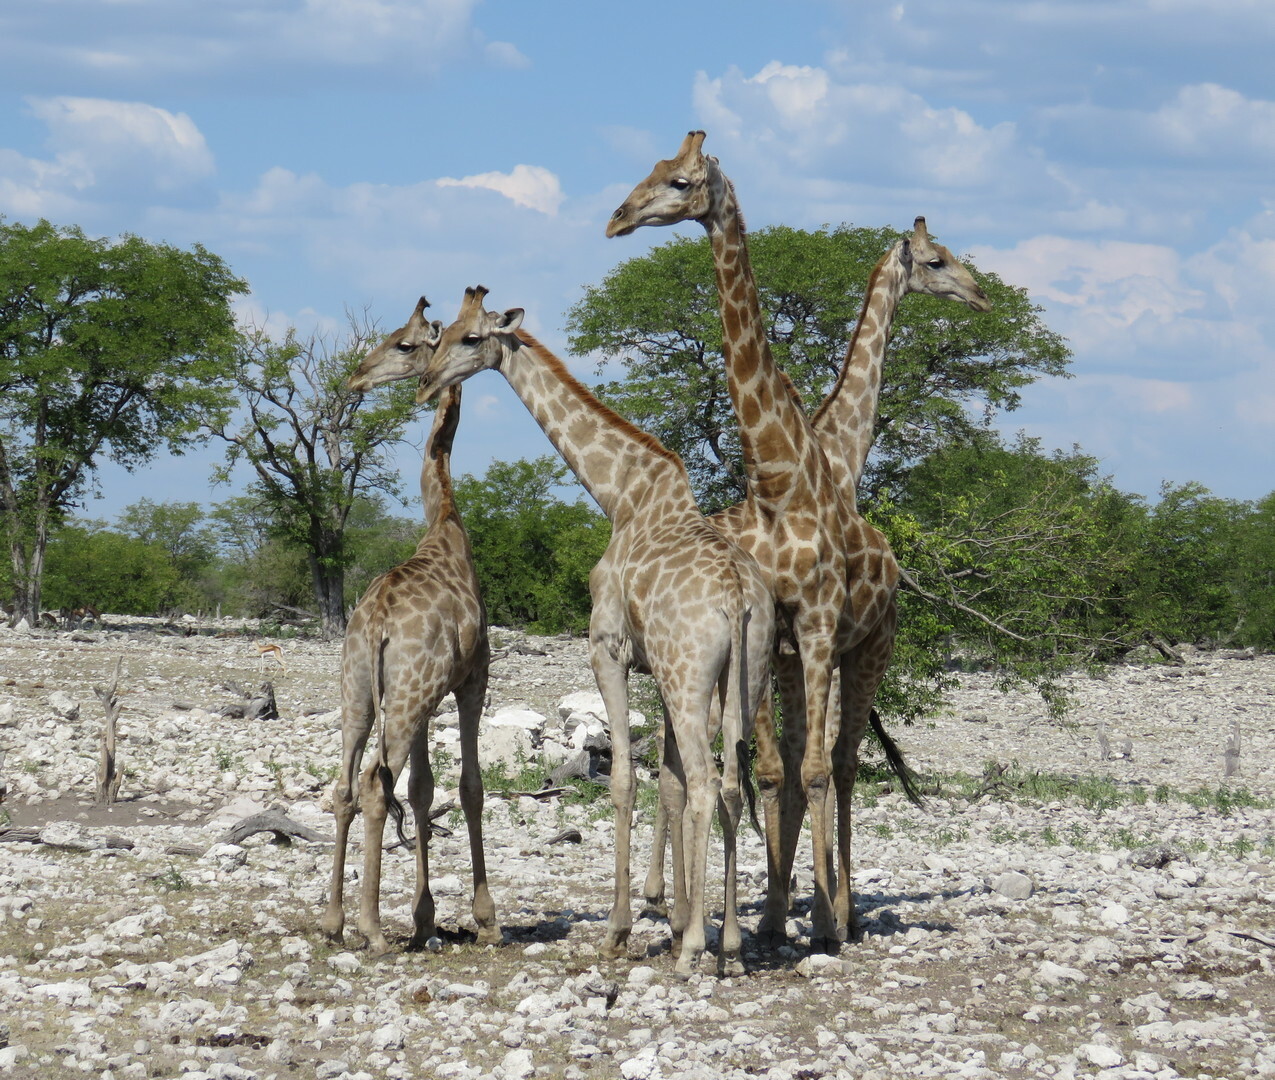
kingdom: Animalia
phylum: Chordata
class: Mammalia
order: Artiodactyla
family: Giraffidae
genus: Giraffa
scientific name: Giraffa giraffa
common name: Southern giraffe
